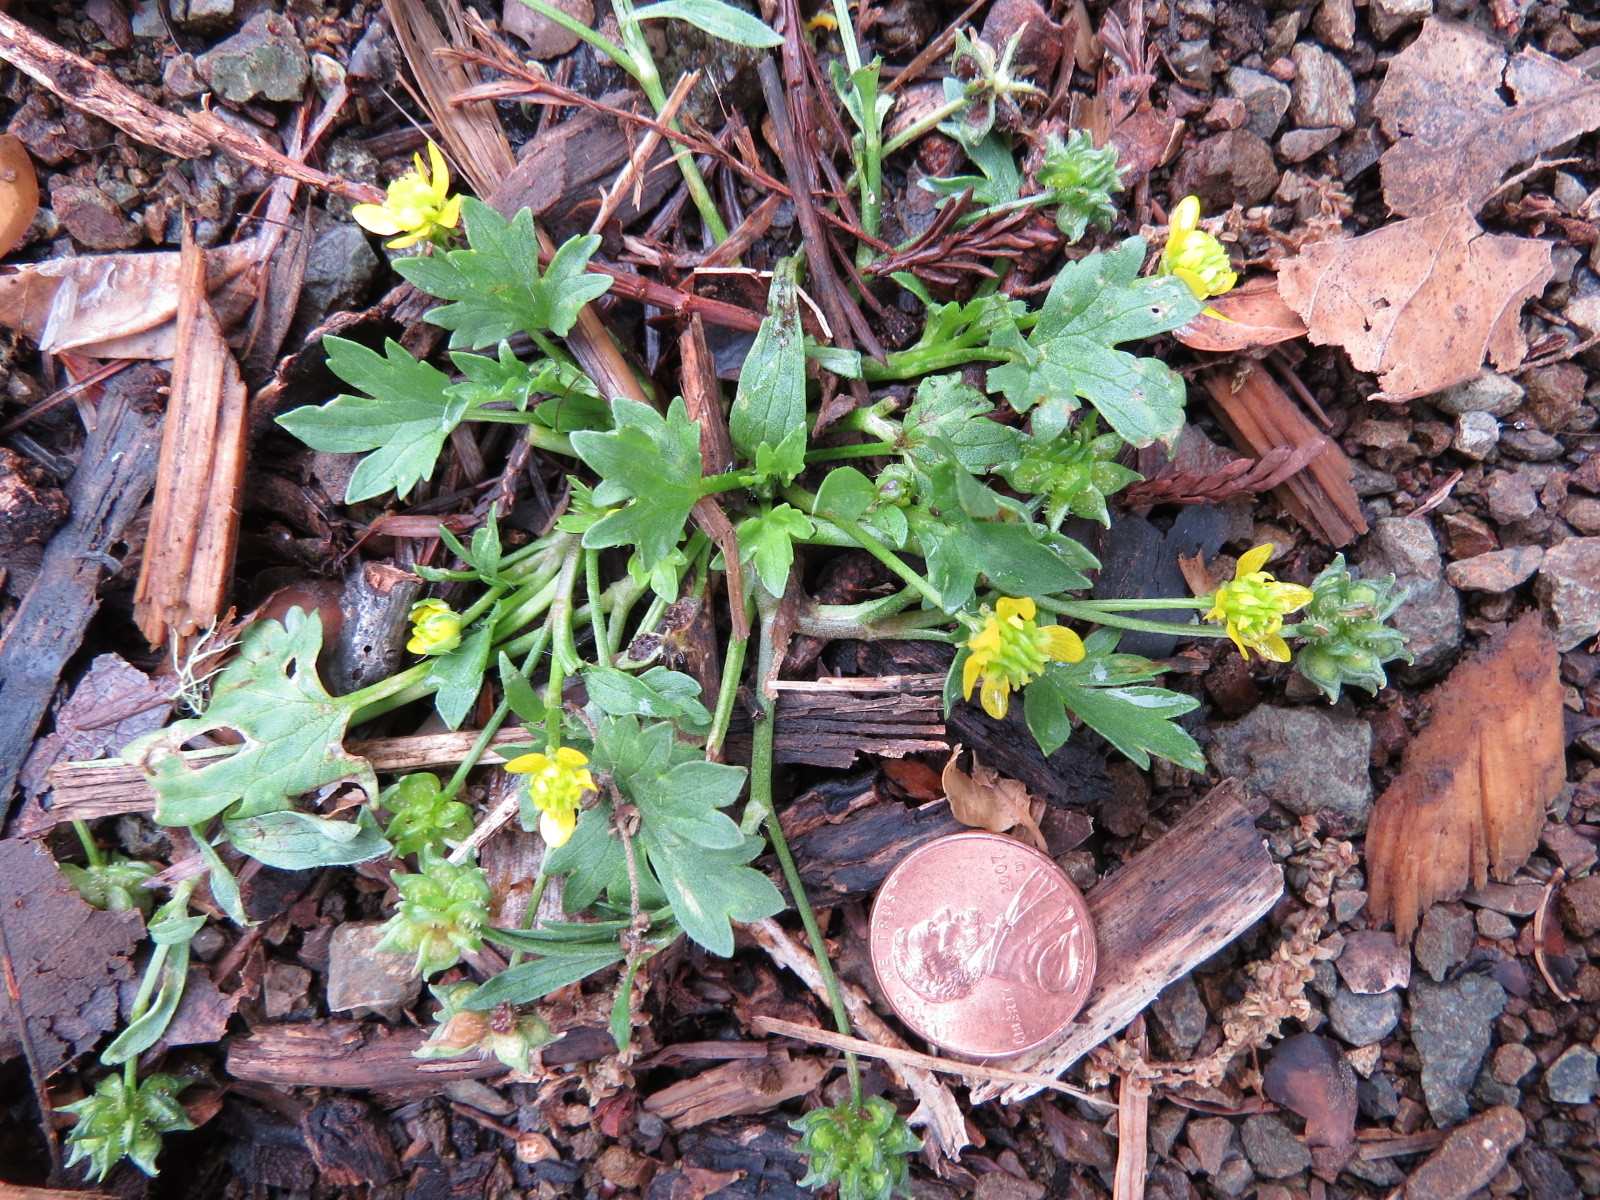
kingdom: Plantae
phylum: Tracheophyta
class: Magnoliopsida
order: Ranunculales
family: Ranunculaceae
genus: Ranunculus
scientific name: Ranunculus muricatus
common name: Rough-fruited buttercup
